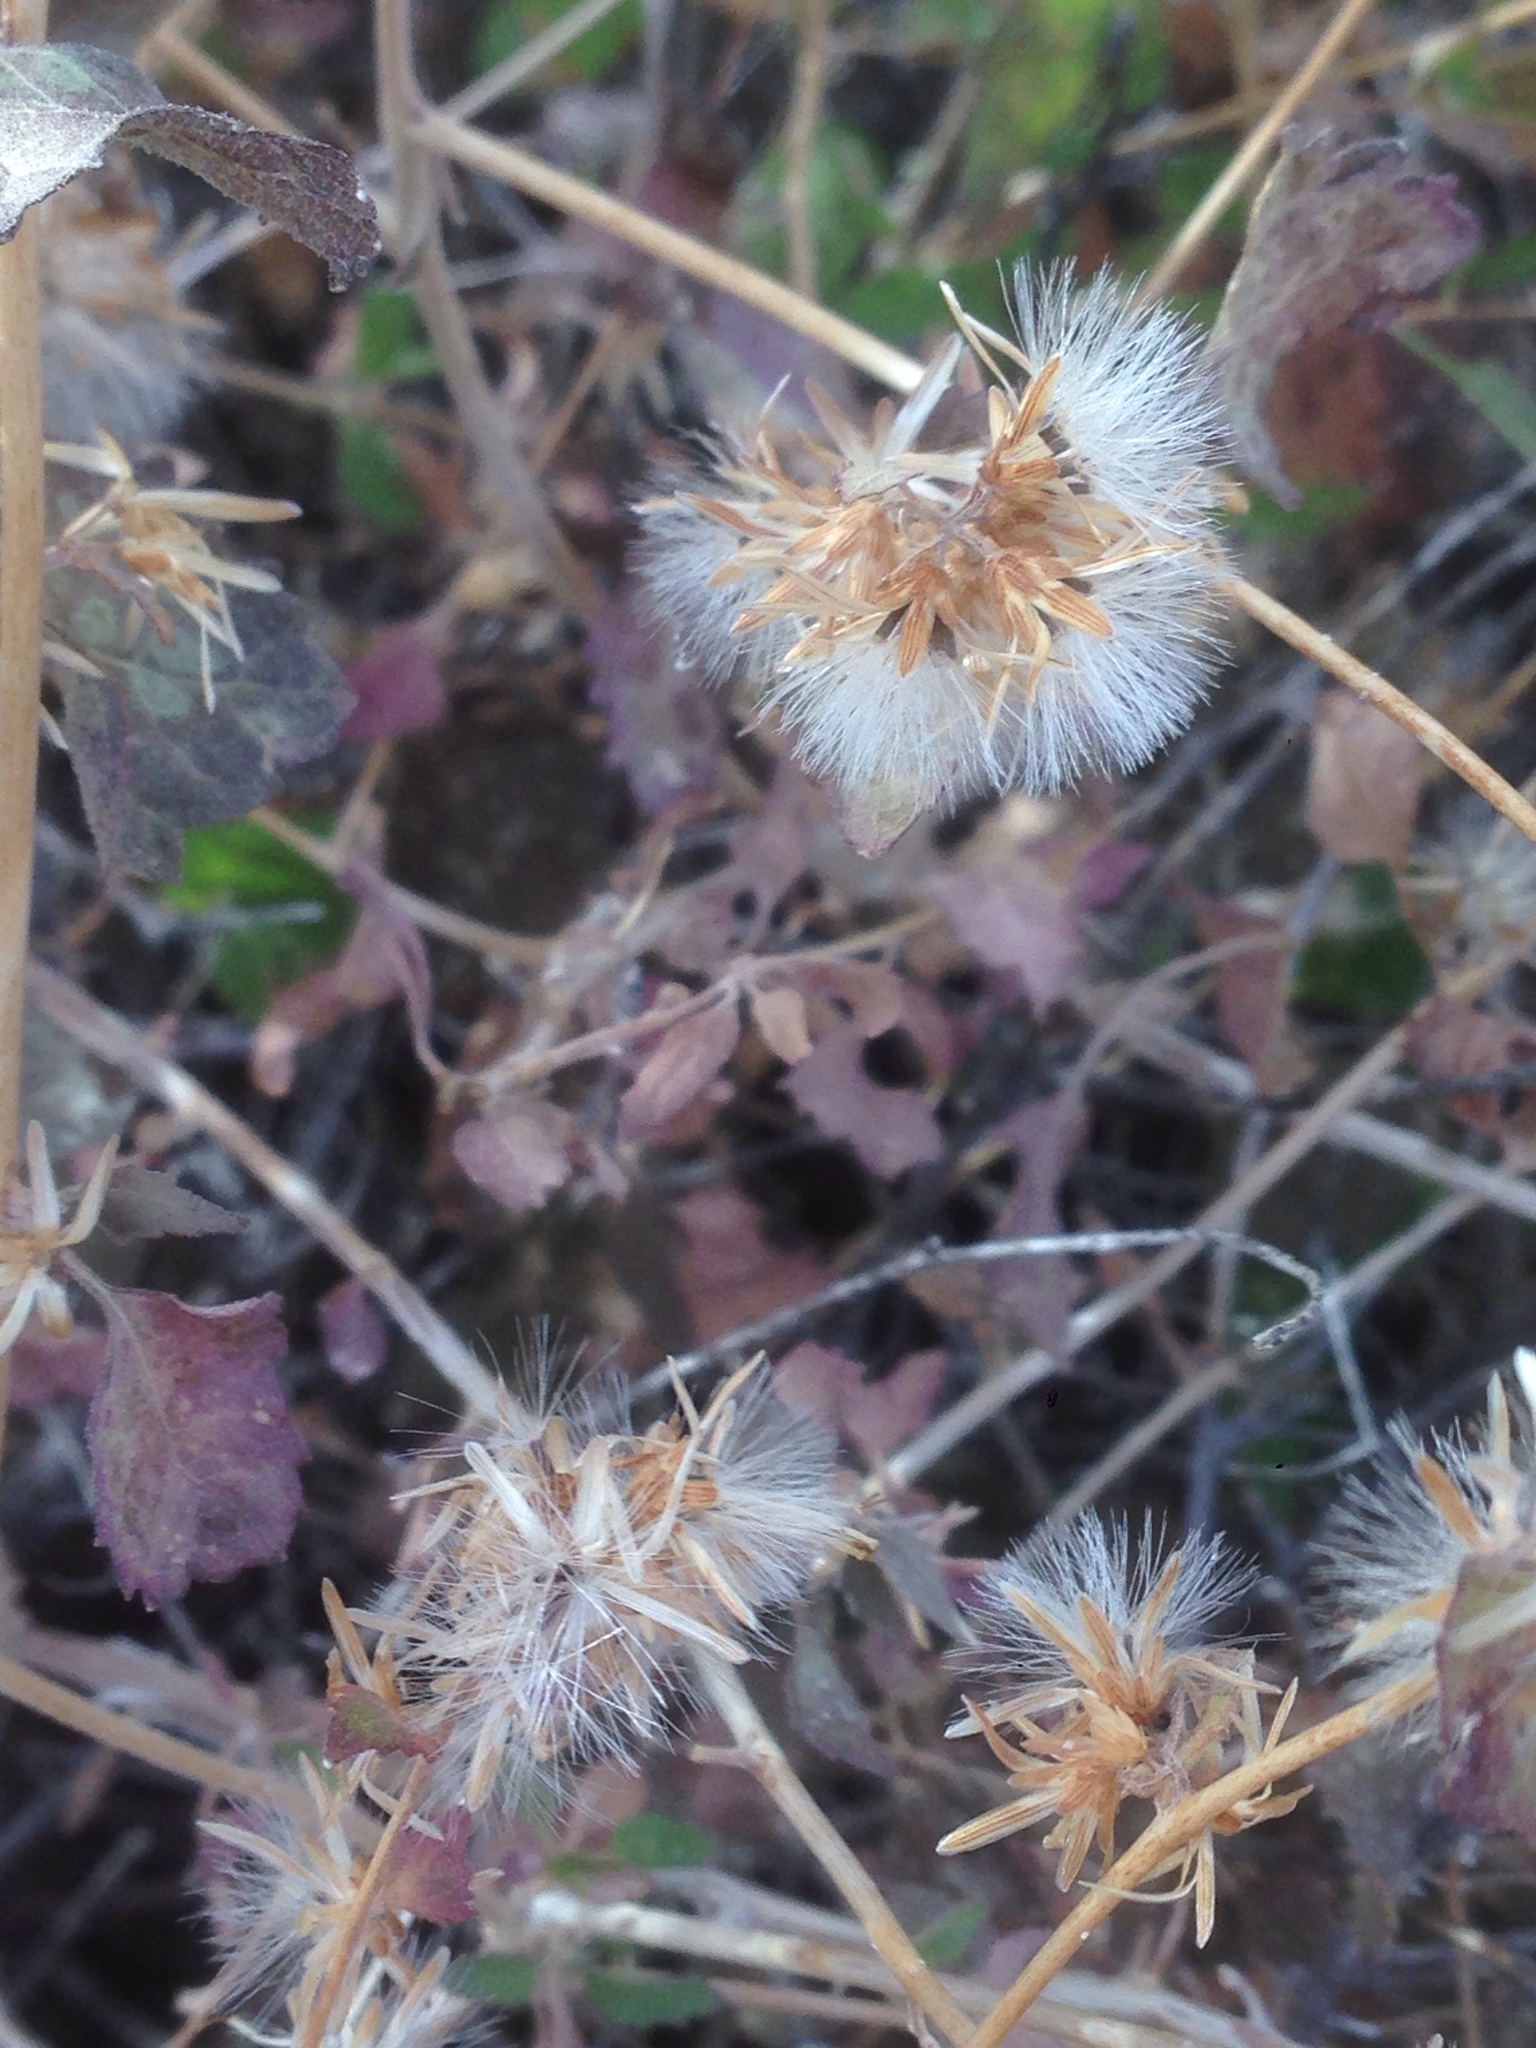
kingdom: Plantae
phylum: Tracheophyta
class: Magnoliopsida
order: Asterales
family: Asteraceae
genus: Brickellia
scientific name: Brickellia californica
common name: California brickellbush
